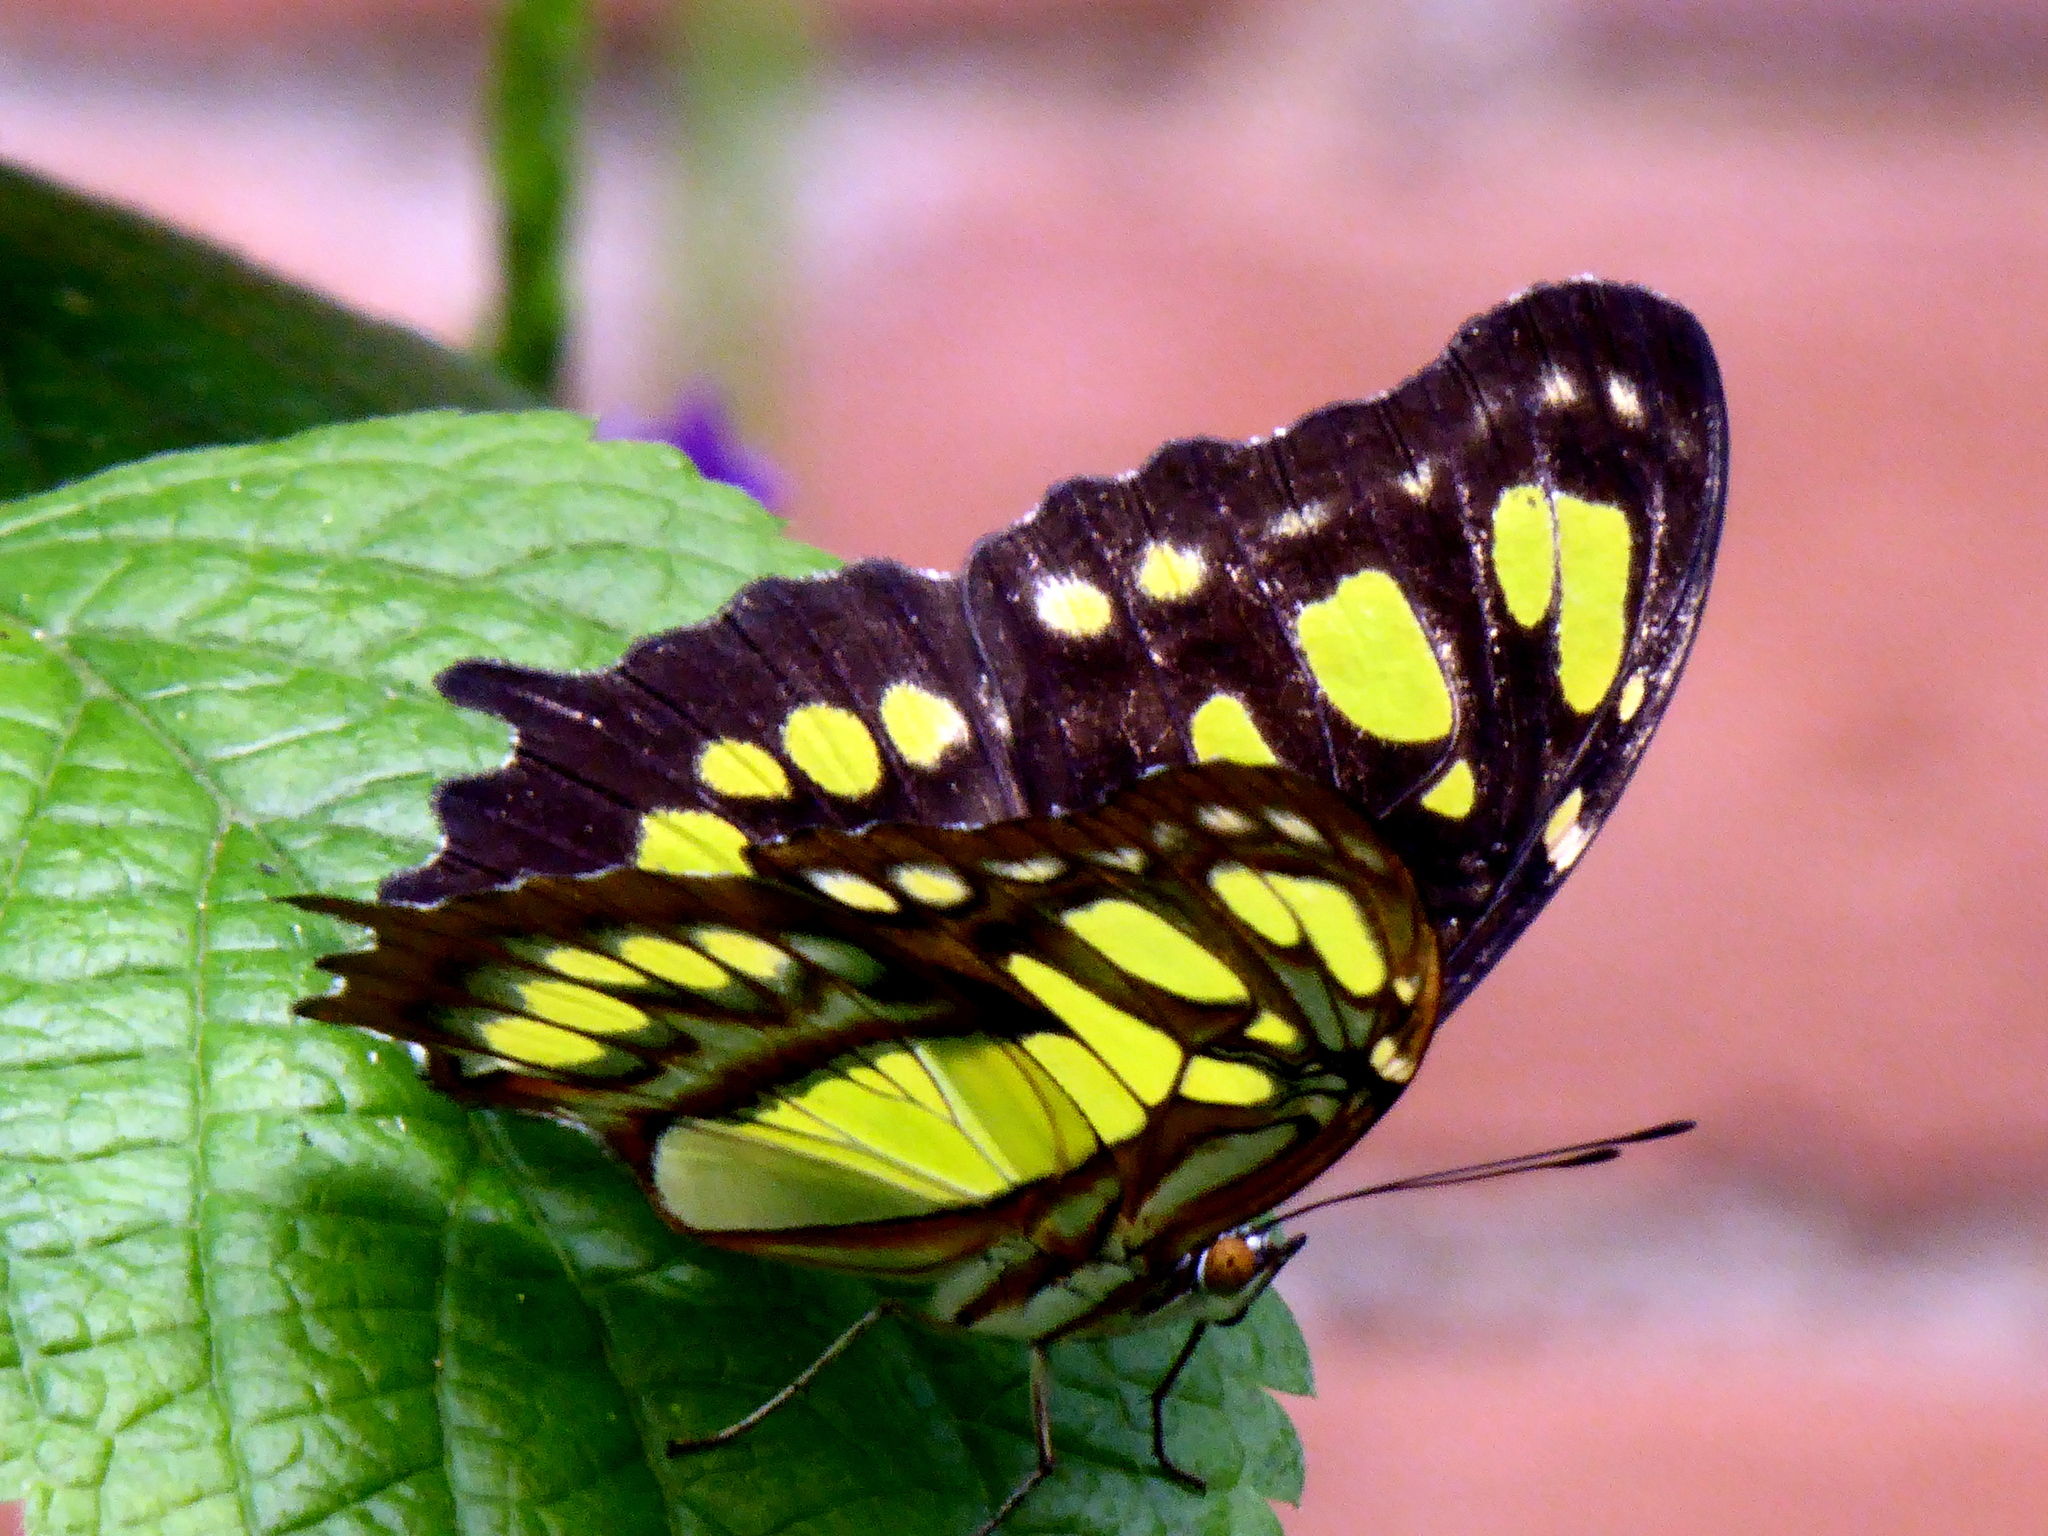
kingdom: Animalia
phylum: Arthropoda
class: Insecta
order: Lepidoptera
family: Nymphalidae
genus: Siproeta
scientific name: Siproeta stelenes
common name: Malachite
